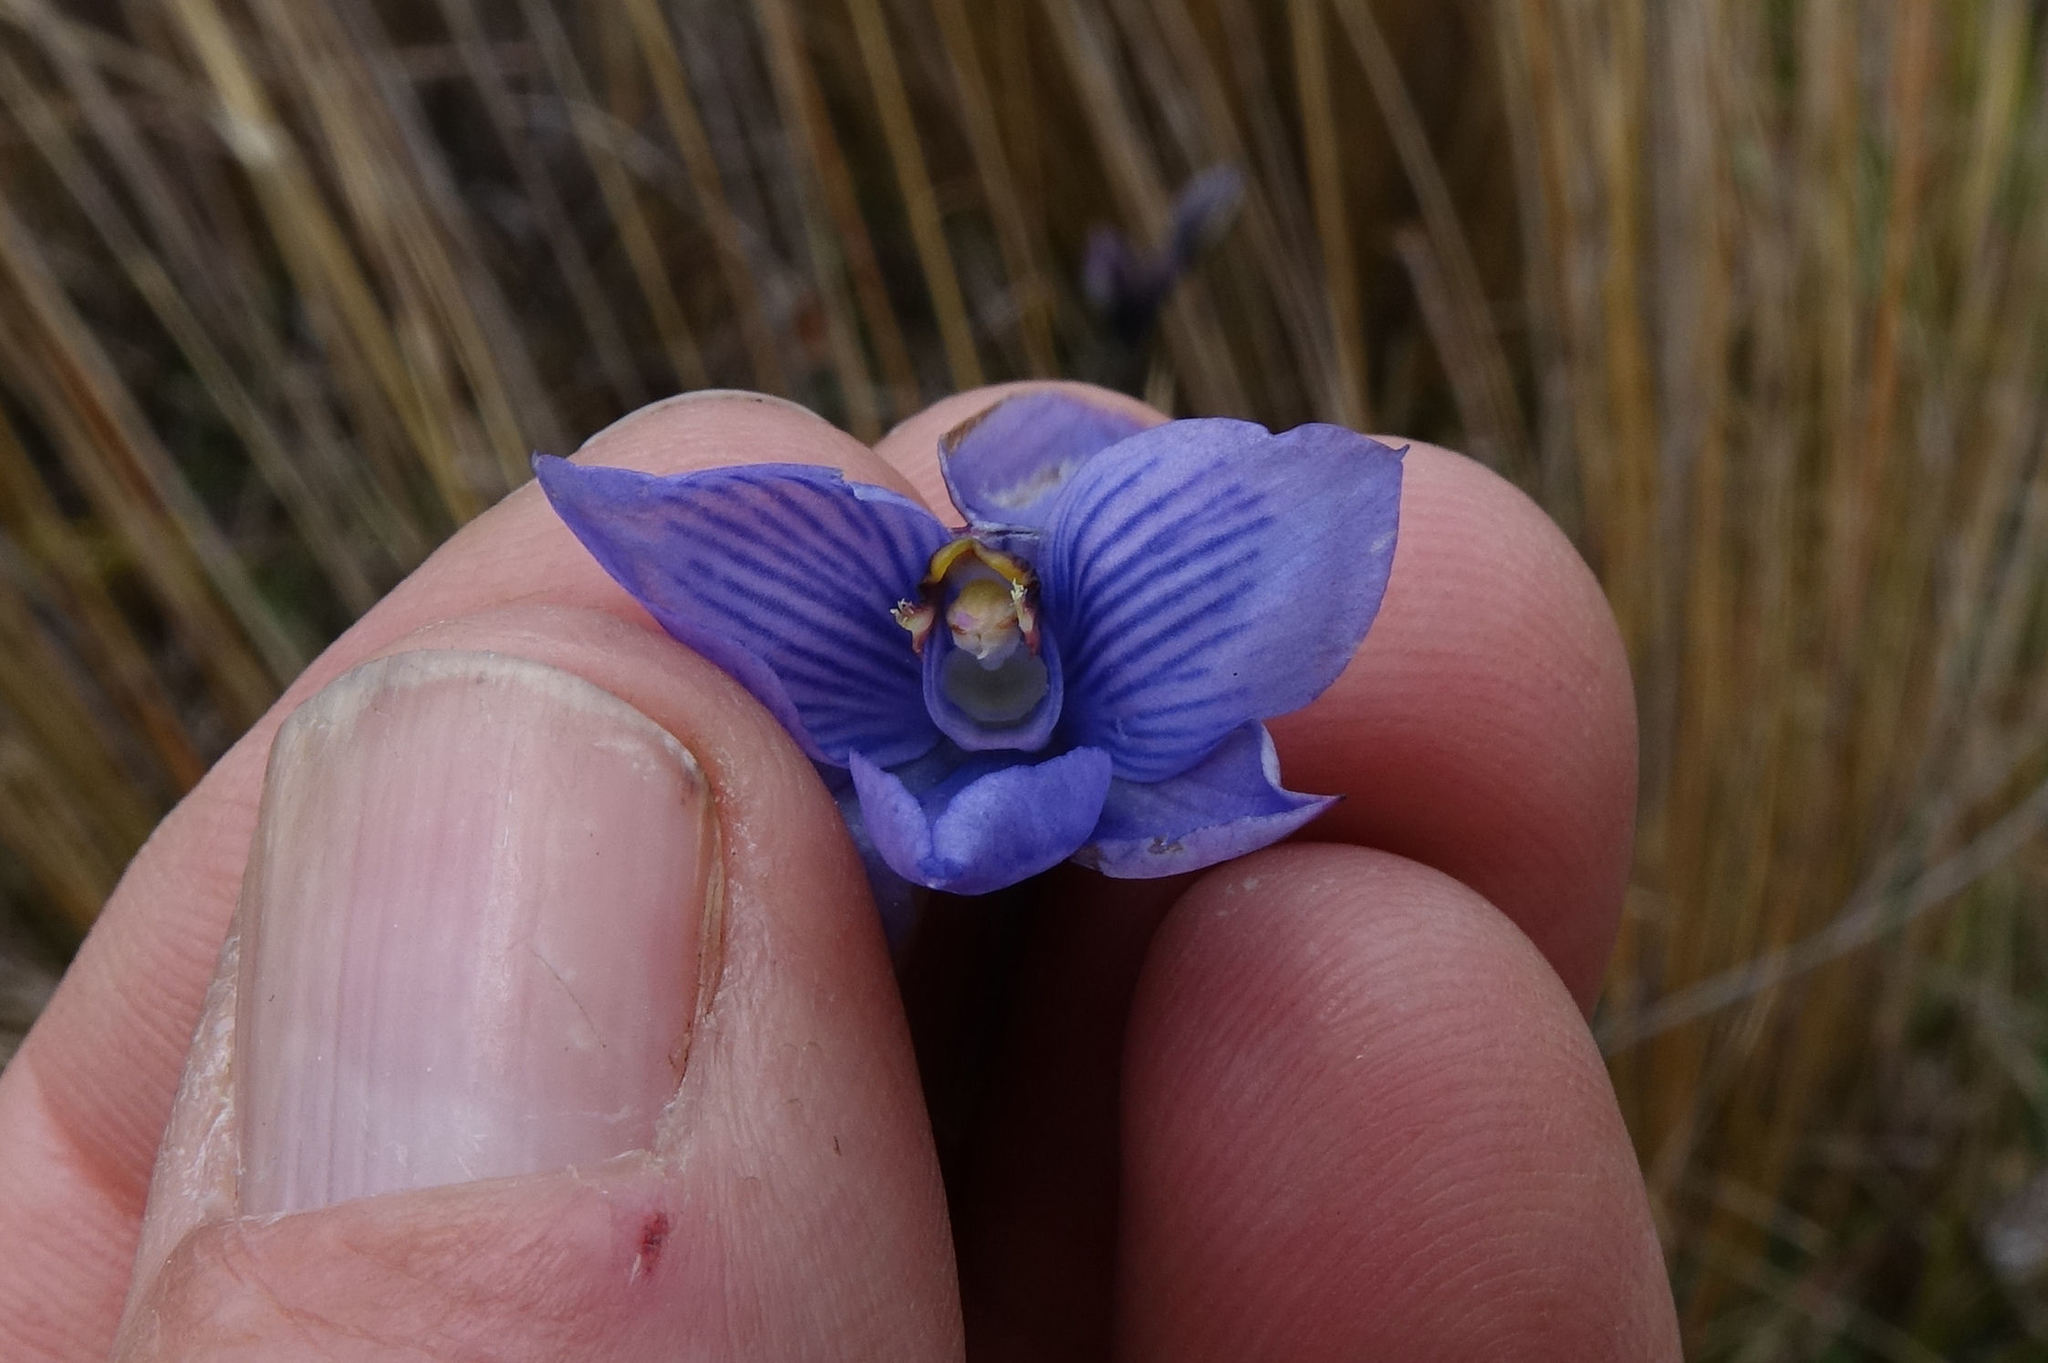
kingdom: Plantae
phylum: Tracheophyta
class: Liliopsida
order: Asparagales
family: Orchidaceae
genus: Thelymitra
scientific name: Thelymitra pulchella
